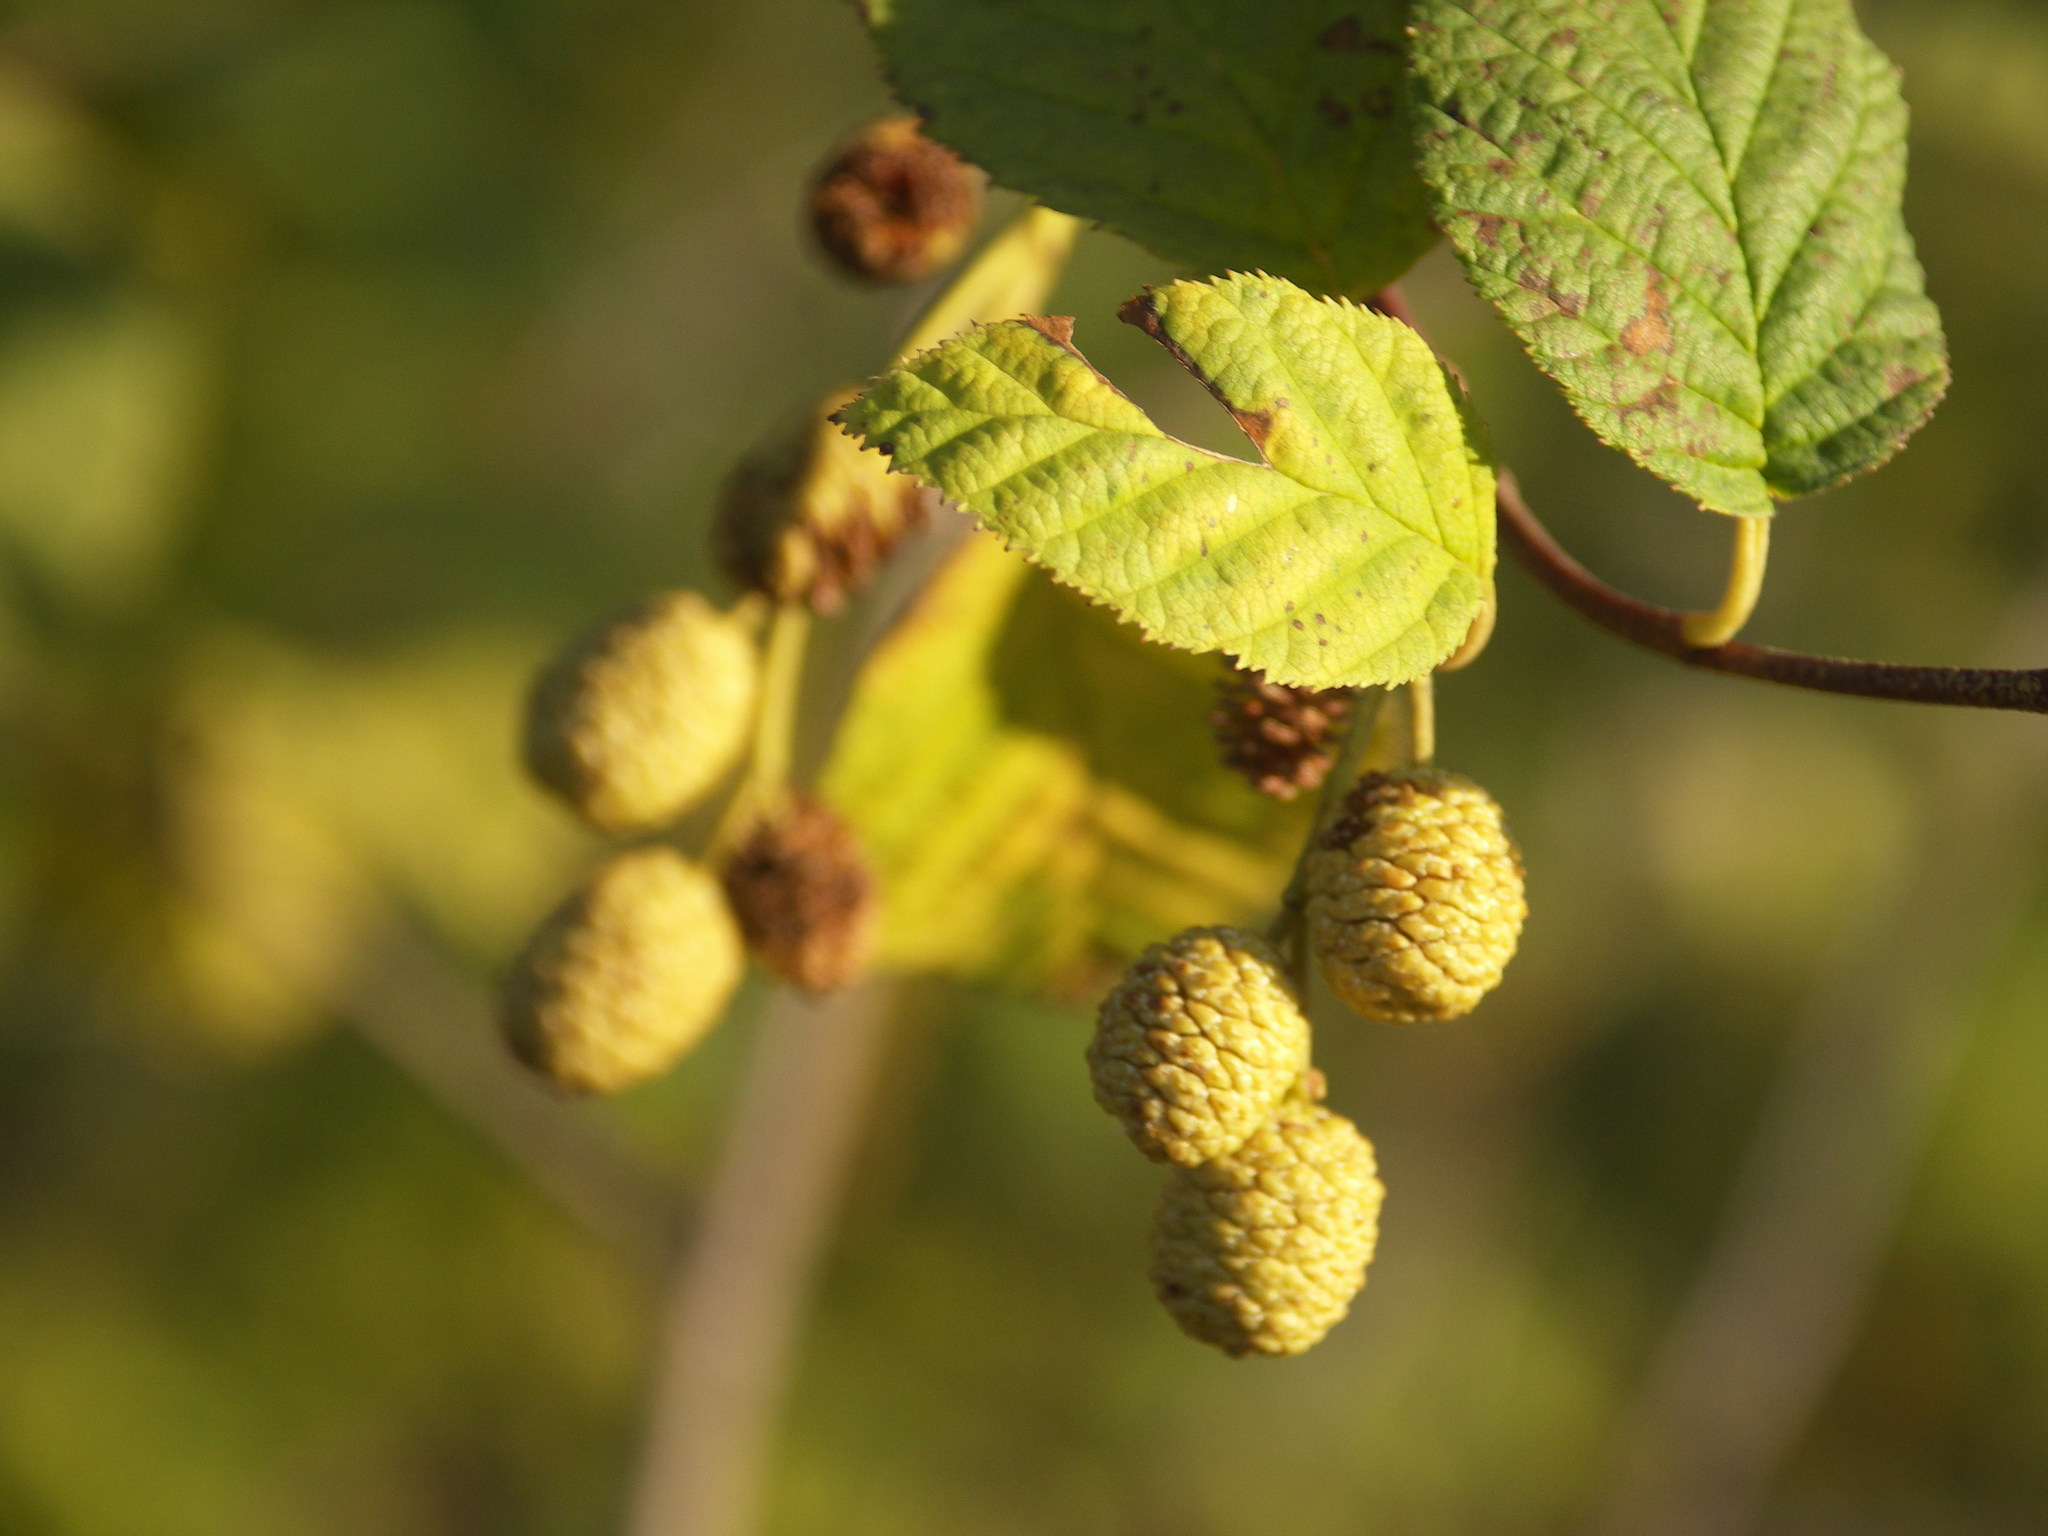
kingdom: Plantae
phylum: Tracheophyta
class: Magnoliopsida
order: Fagales
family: Betulaceae
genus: Alnus
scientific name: Alnus alnobetula
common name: Green alder
